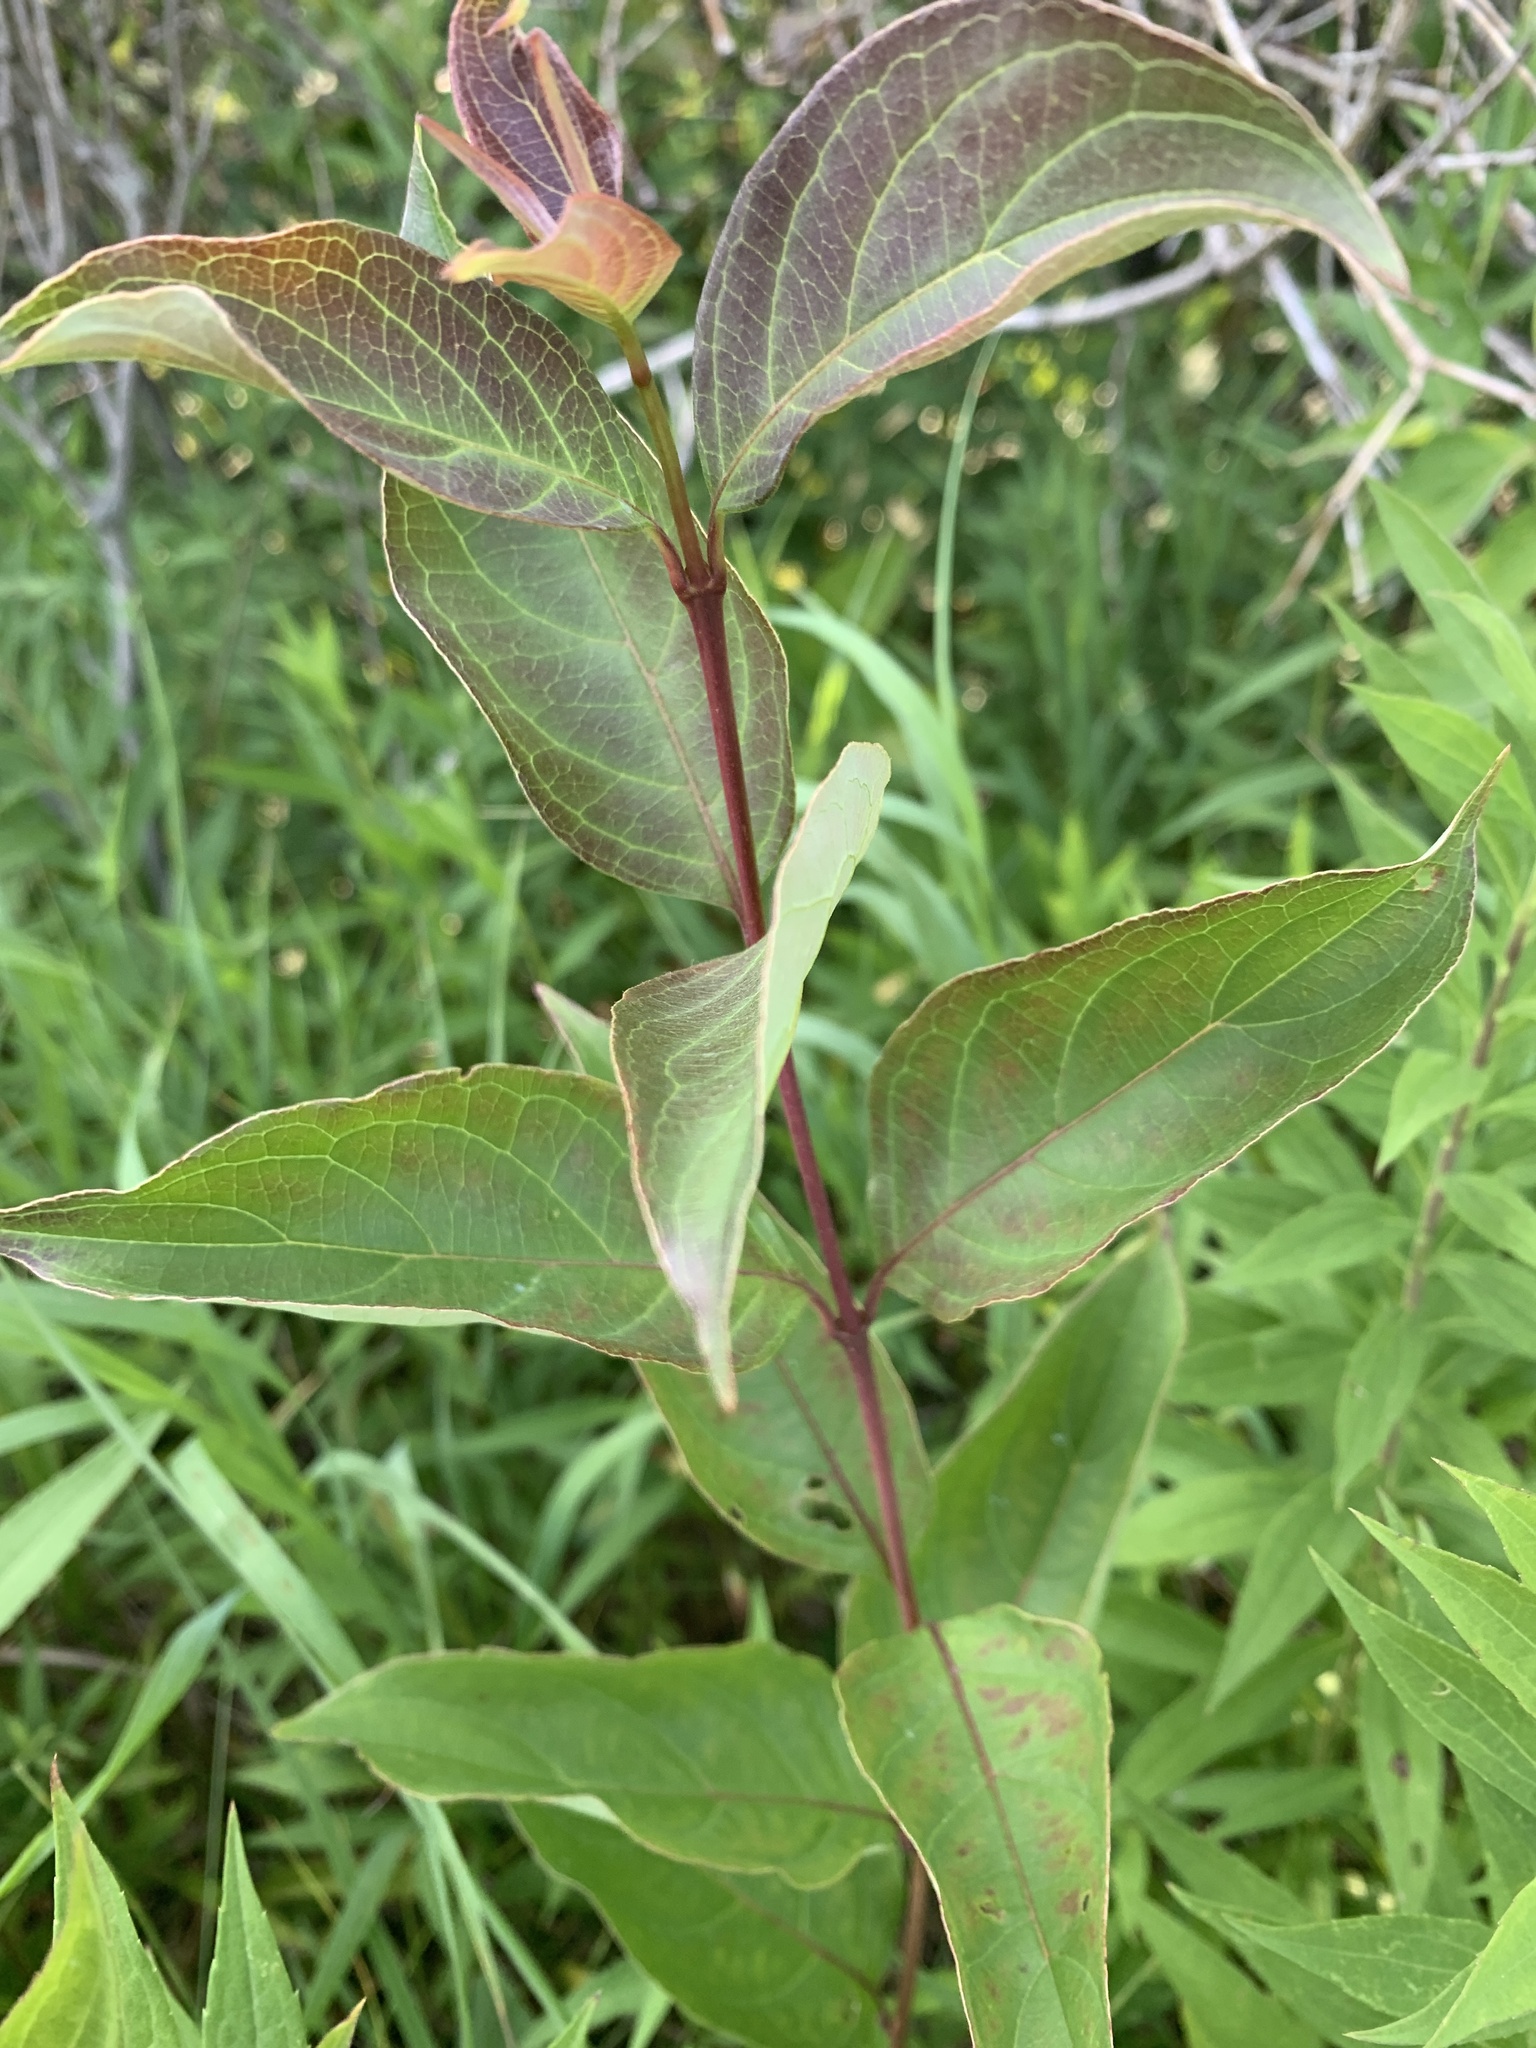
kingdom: Plantae
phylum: Tracheophyta
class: Magnoliopsida
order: Cornales
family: Cornaceae
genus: Cornus
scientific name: Cornus racemosa
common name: Panicled dogwood
